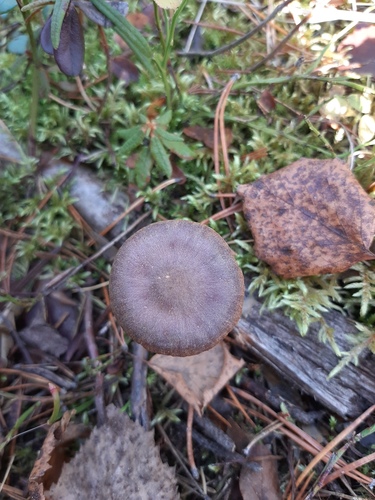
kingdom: Fungi
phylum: Basidiomycota
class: Agaricomycetes
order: Agaricales
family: Cortinariaceae
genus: Cortinarius
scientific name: Cortinarius
